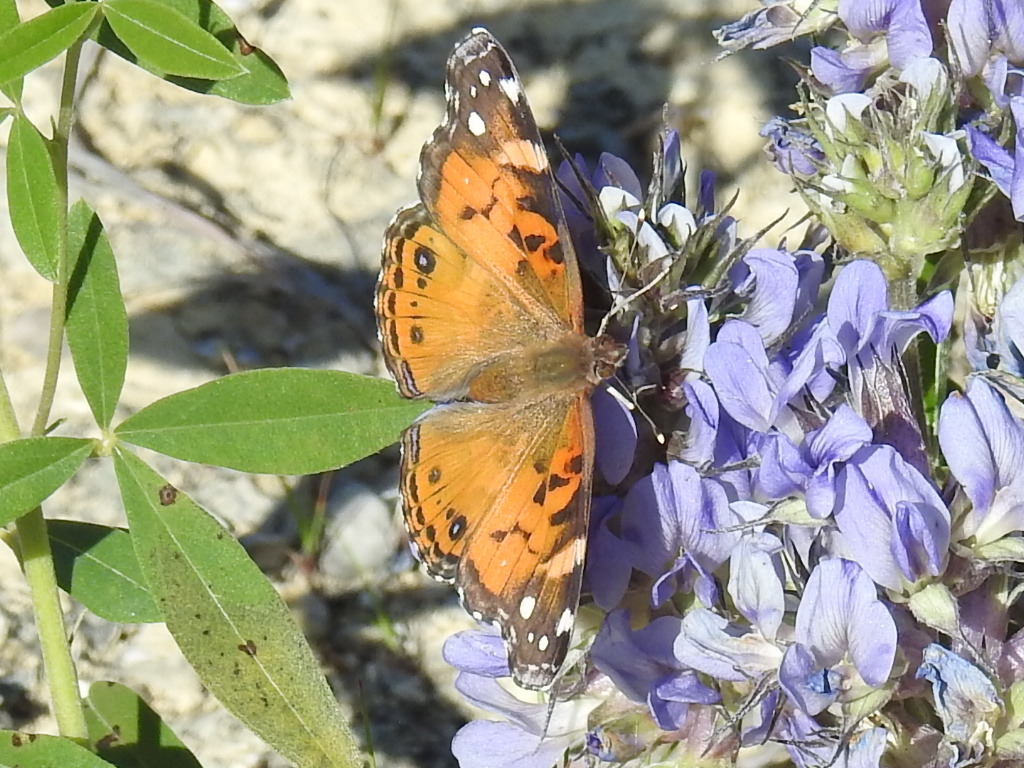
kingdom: Animalia
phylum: Arthropoda
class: Insecta
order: Lepidoptera
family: Nymphalidae
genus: Vanessa
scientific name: Vanessa virginiensis
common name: American lady
